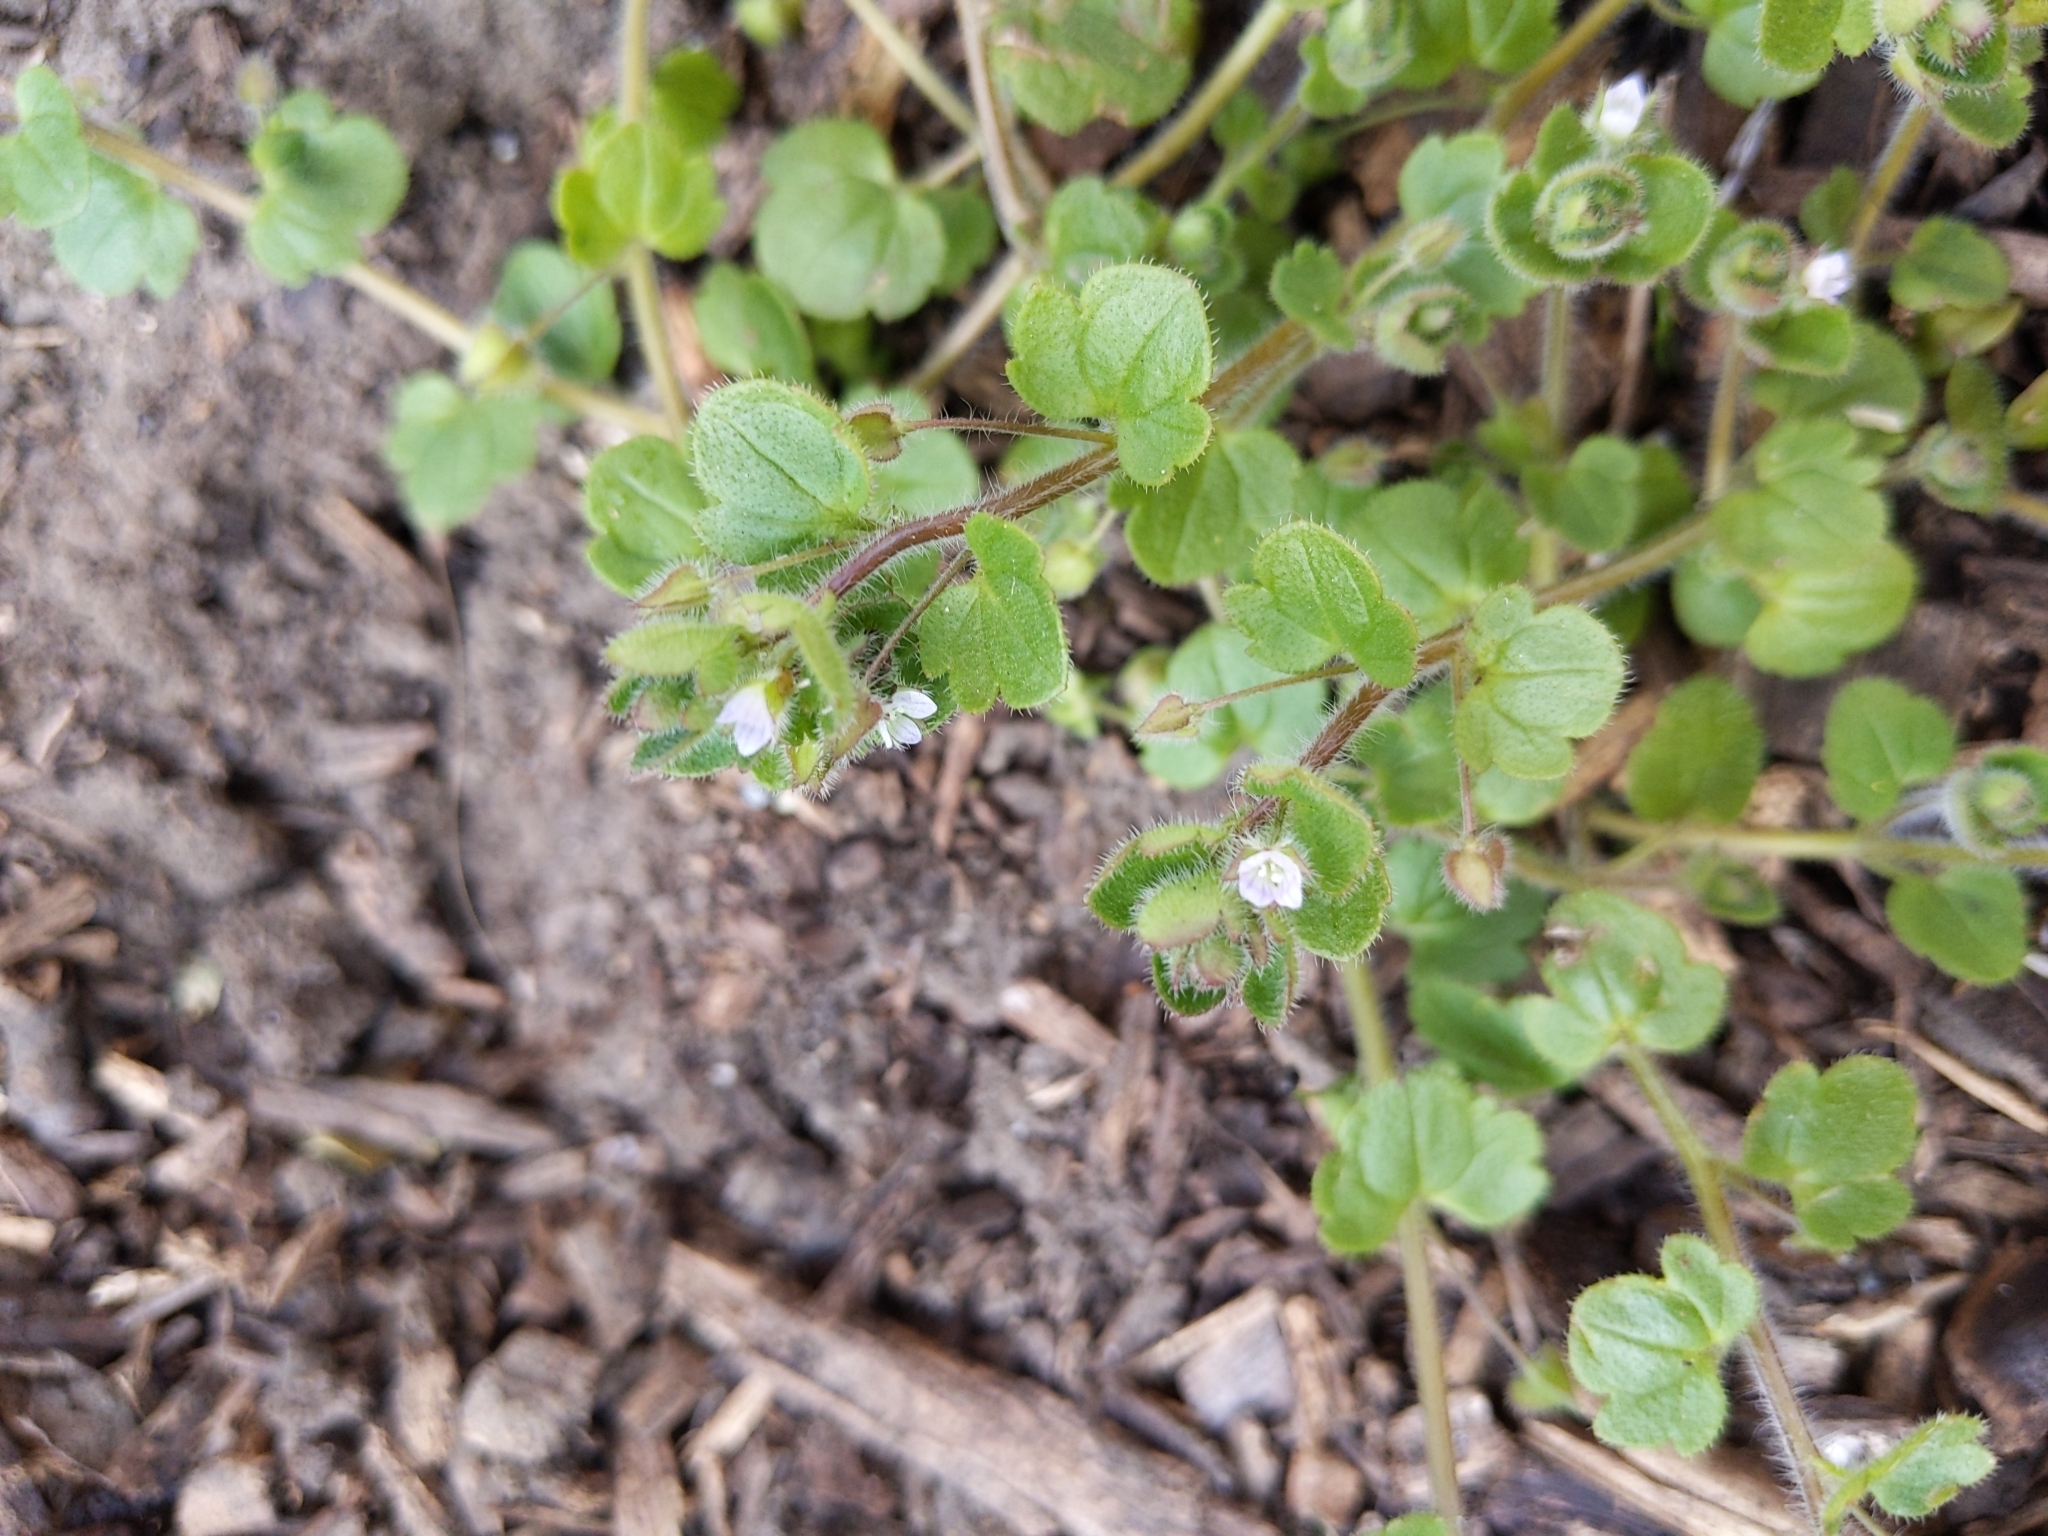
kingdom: Plantae
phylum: Tracheophyta
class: Magnoliopsida
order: Lamiales
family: Plantaginaceae
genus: Veronica
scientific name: Veronica sublobata
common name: False ivy-leaved speedwell
